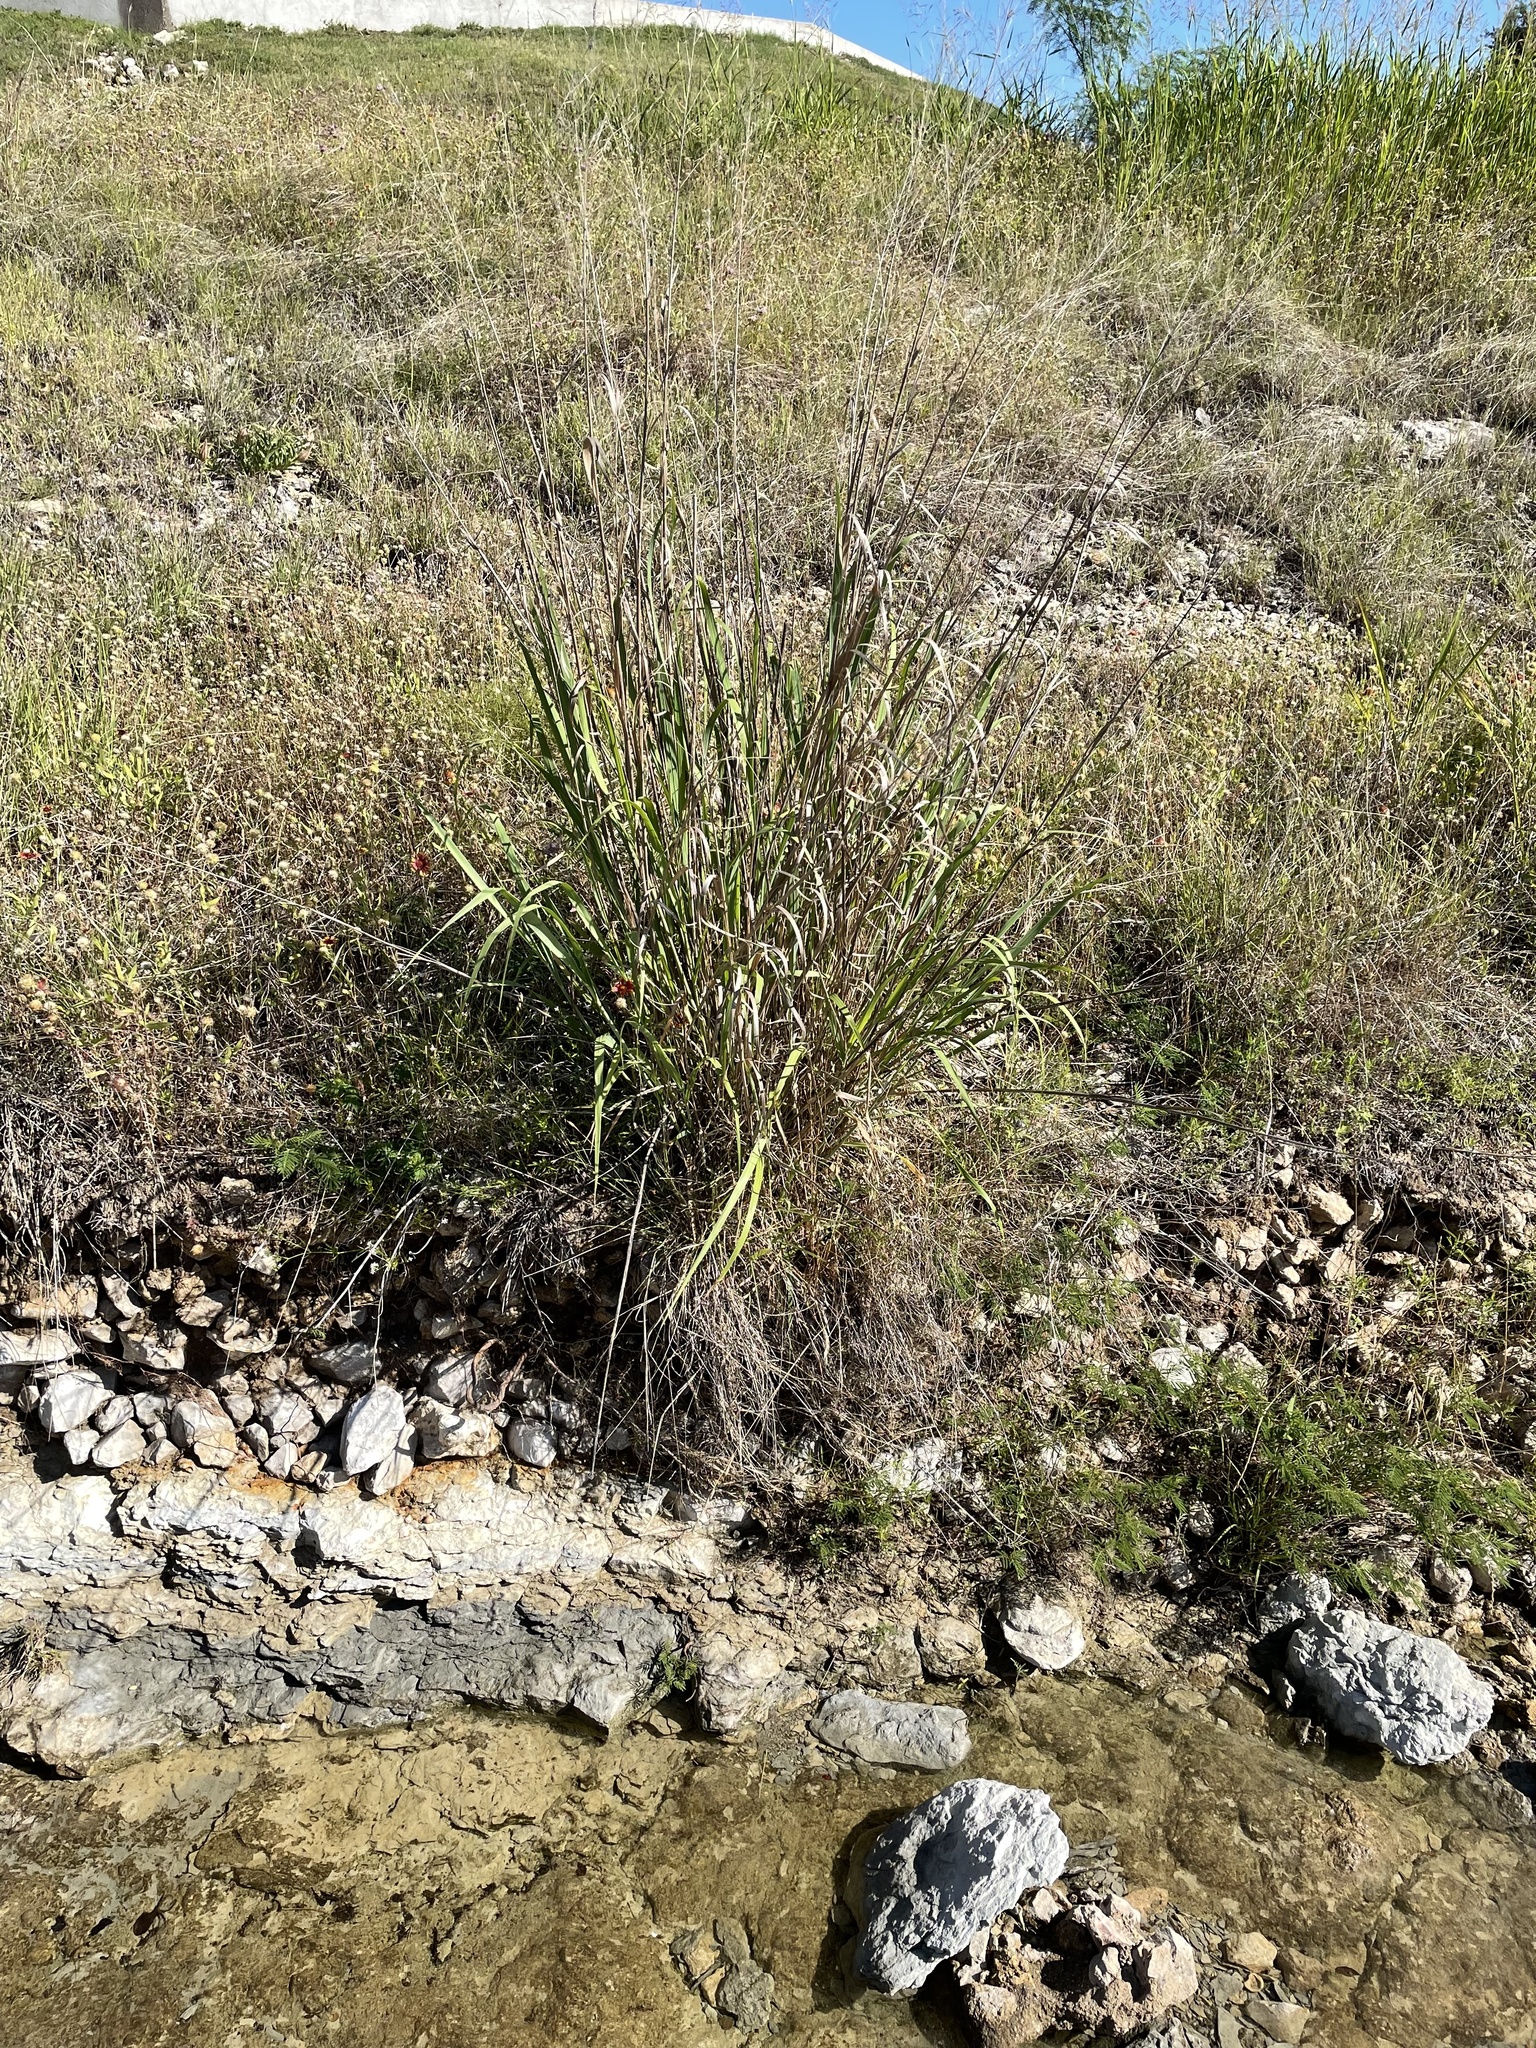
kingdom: Plantae
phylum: Tracheophyta
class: Liliopsida
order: Poales
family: Poaceae
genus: Panicum
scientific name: Panicum virgatum
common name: Switchgrass
